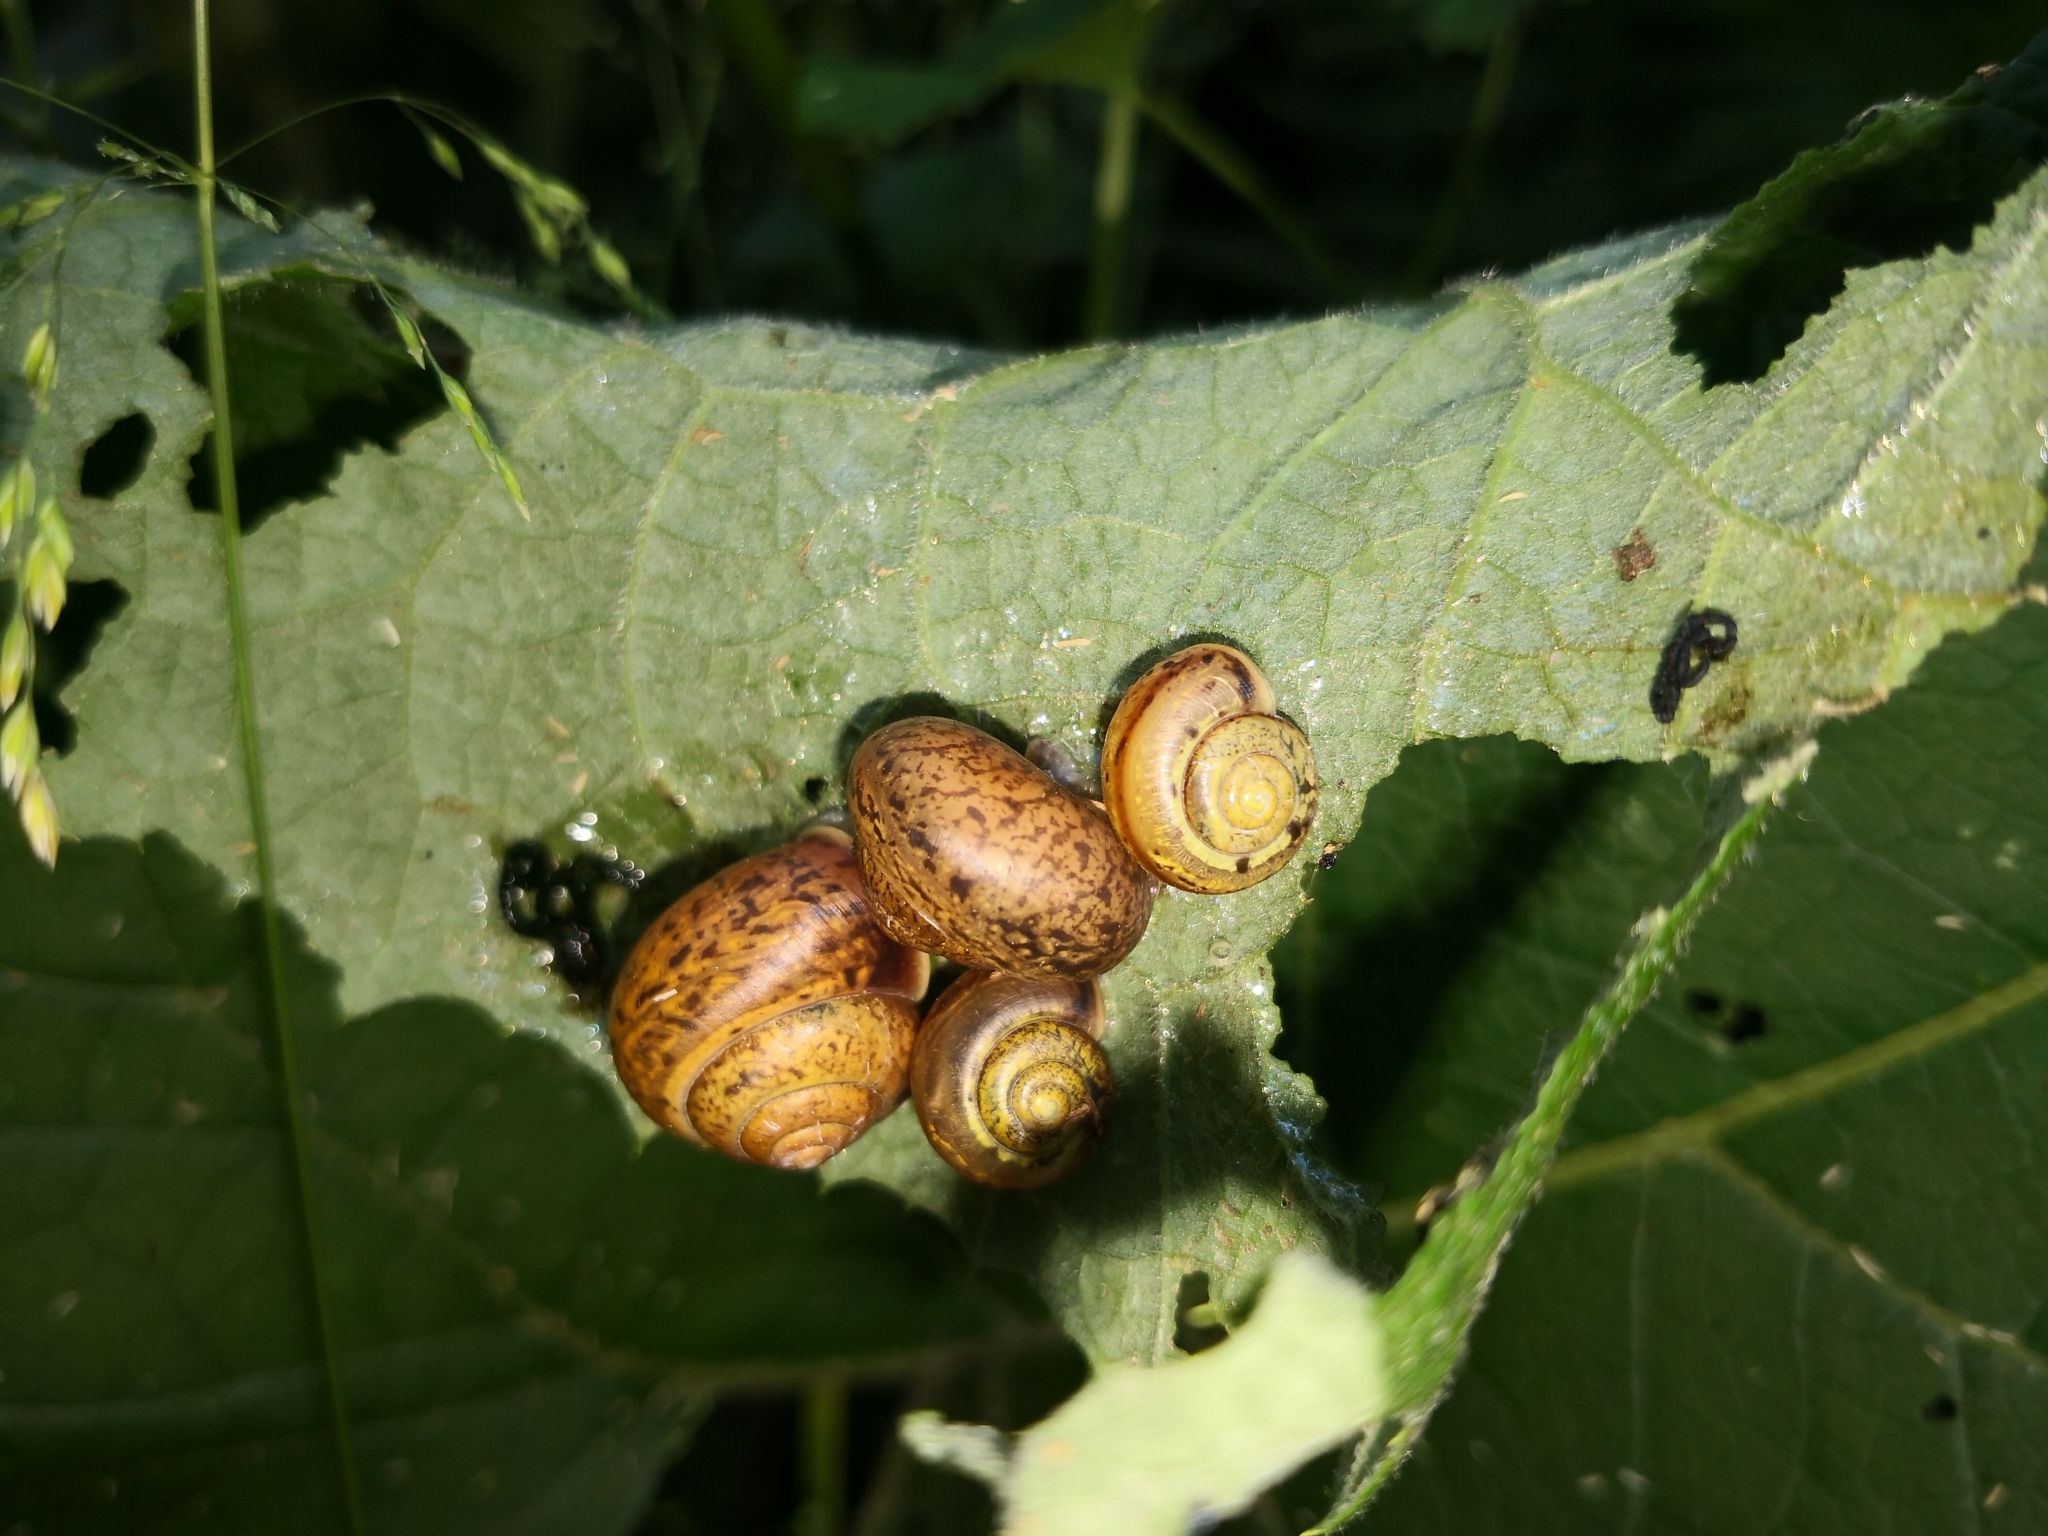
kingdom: Animalia
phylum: Mollusca
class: Gastropoda
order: Stylommatophora
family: Camaenidae
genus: Fruticicola
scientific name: Fruticicola fruticum
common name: Bush snail
